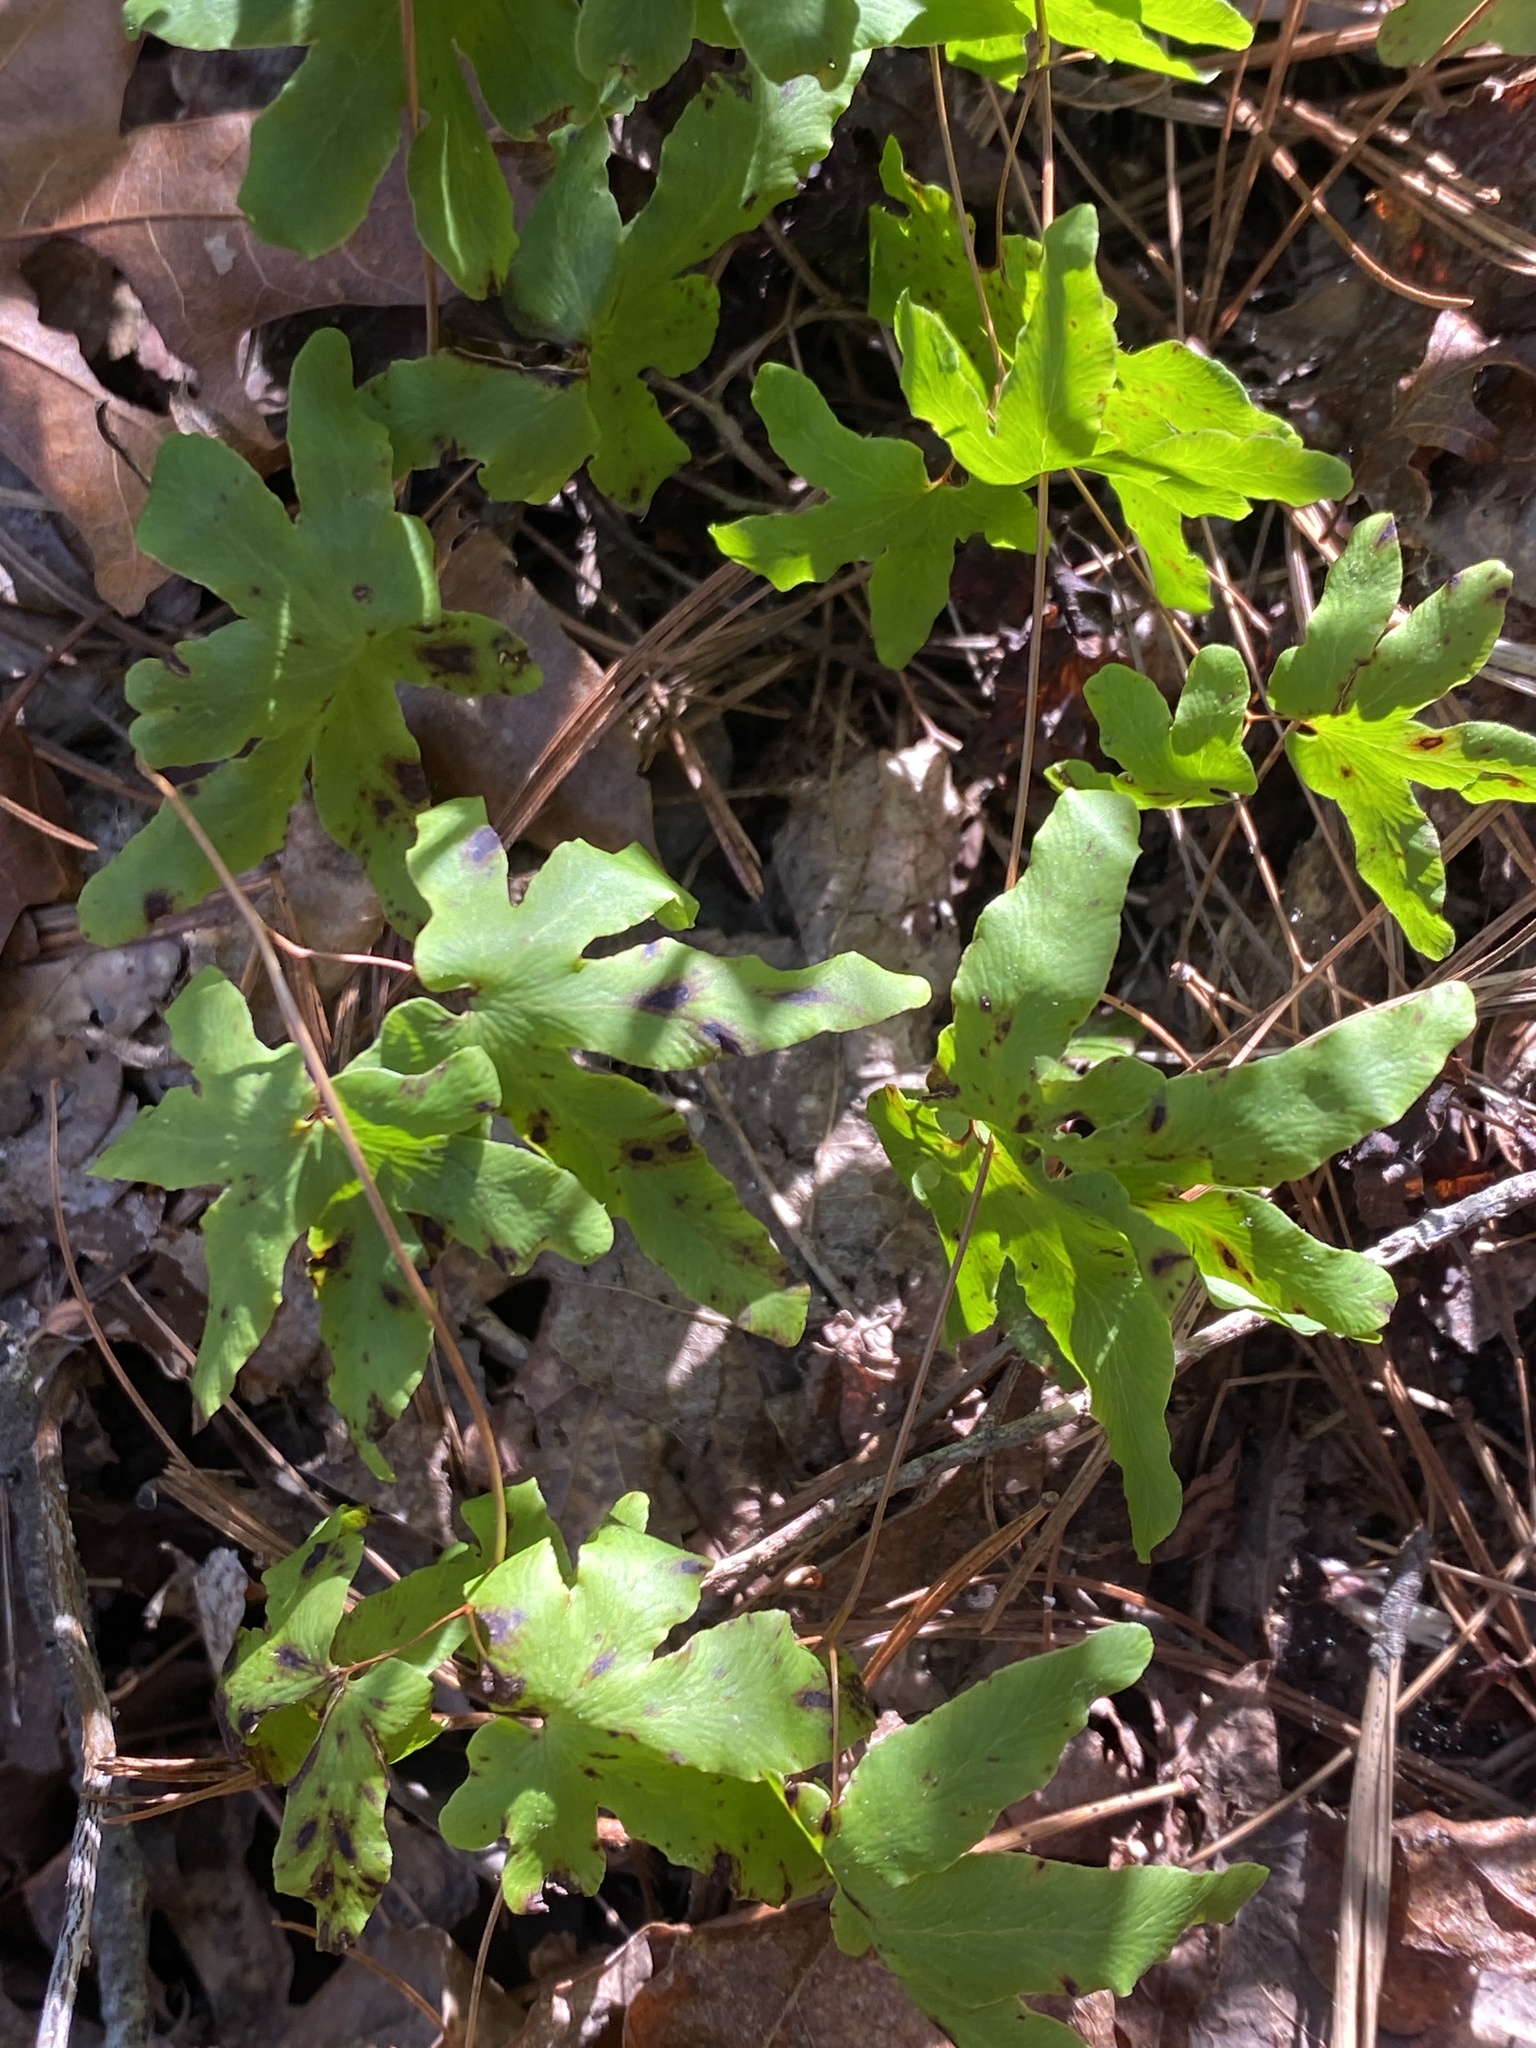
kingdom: Plantae
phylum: Tracheophyta
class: Polypodiopsida
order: Schizaeales
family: Lygodiaceae
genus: Lygodium
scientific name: Lygodium palmatum
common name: American climbing fern
